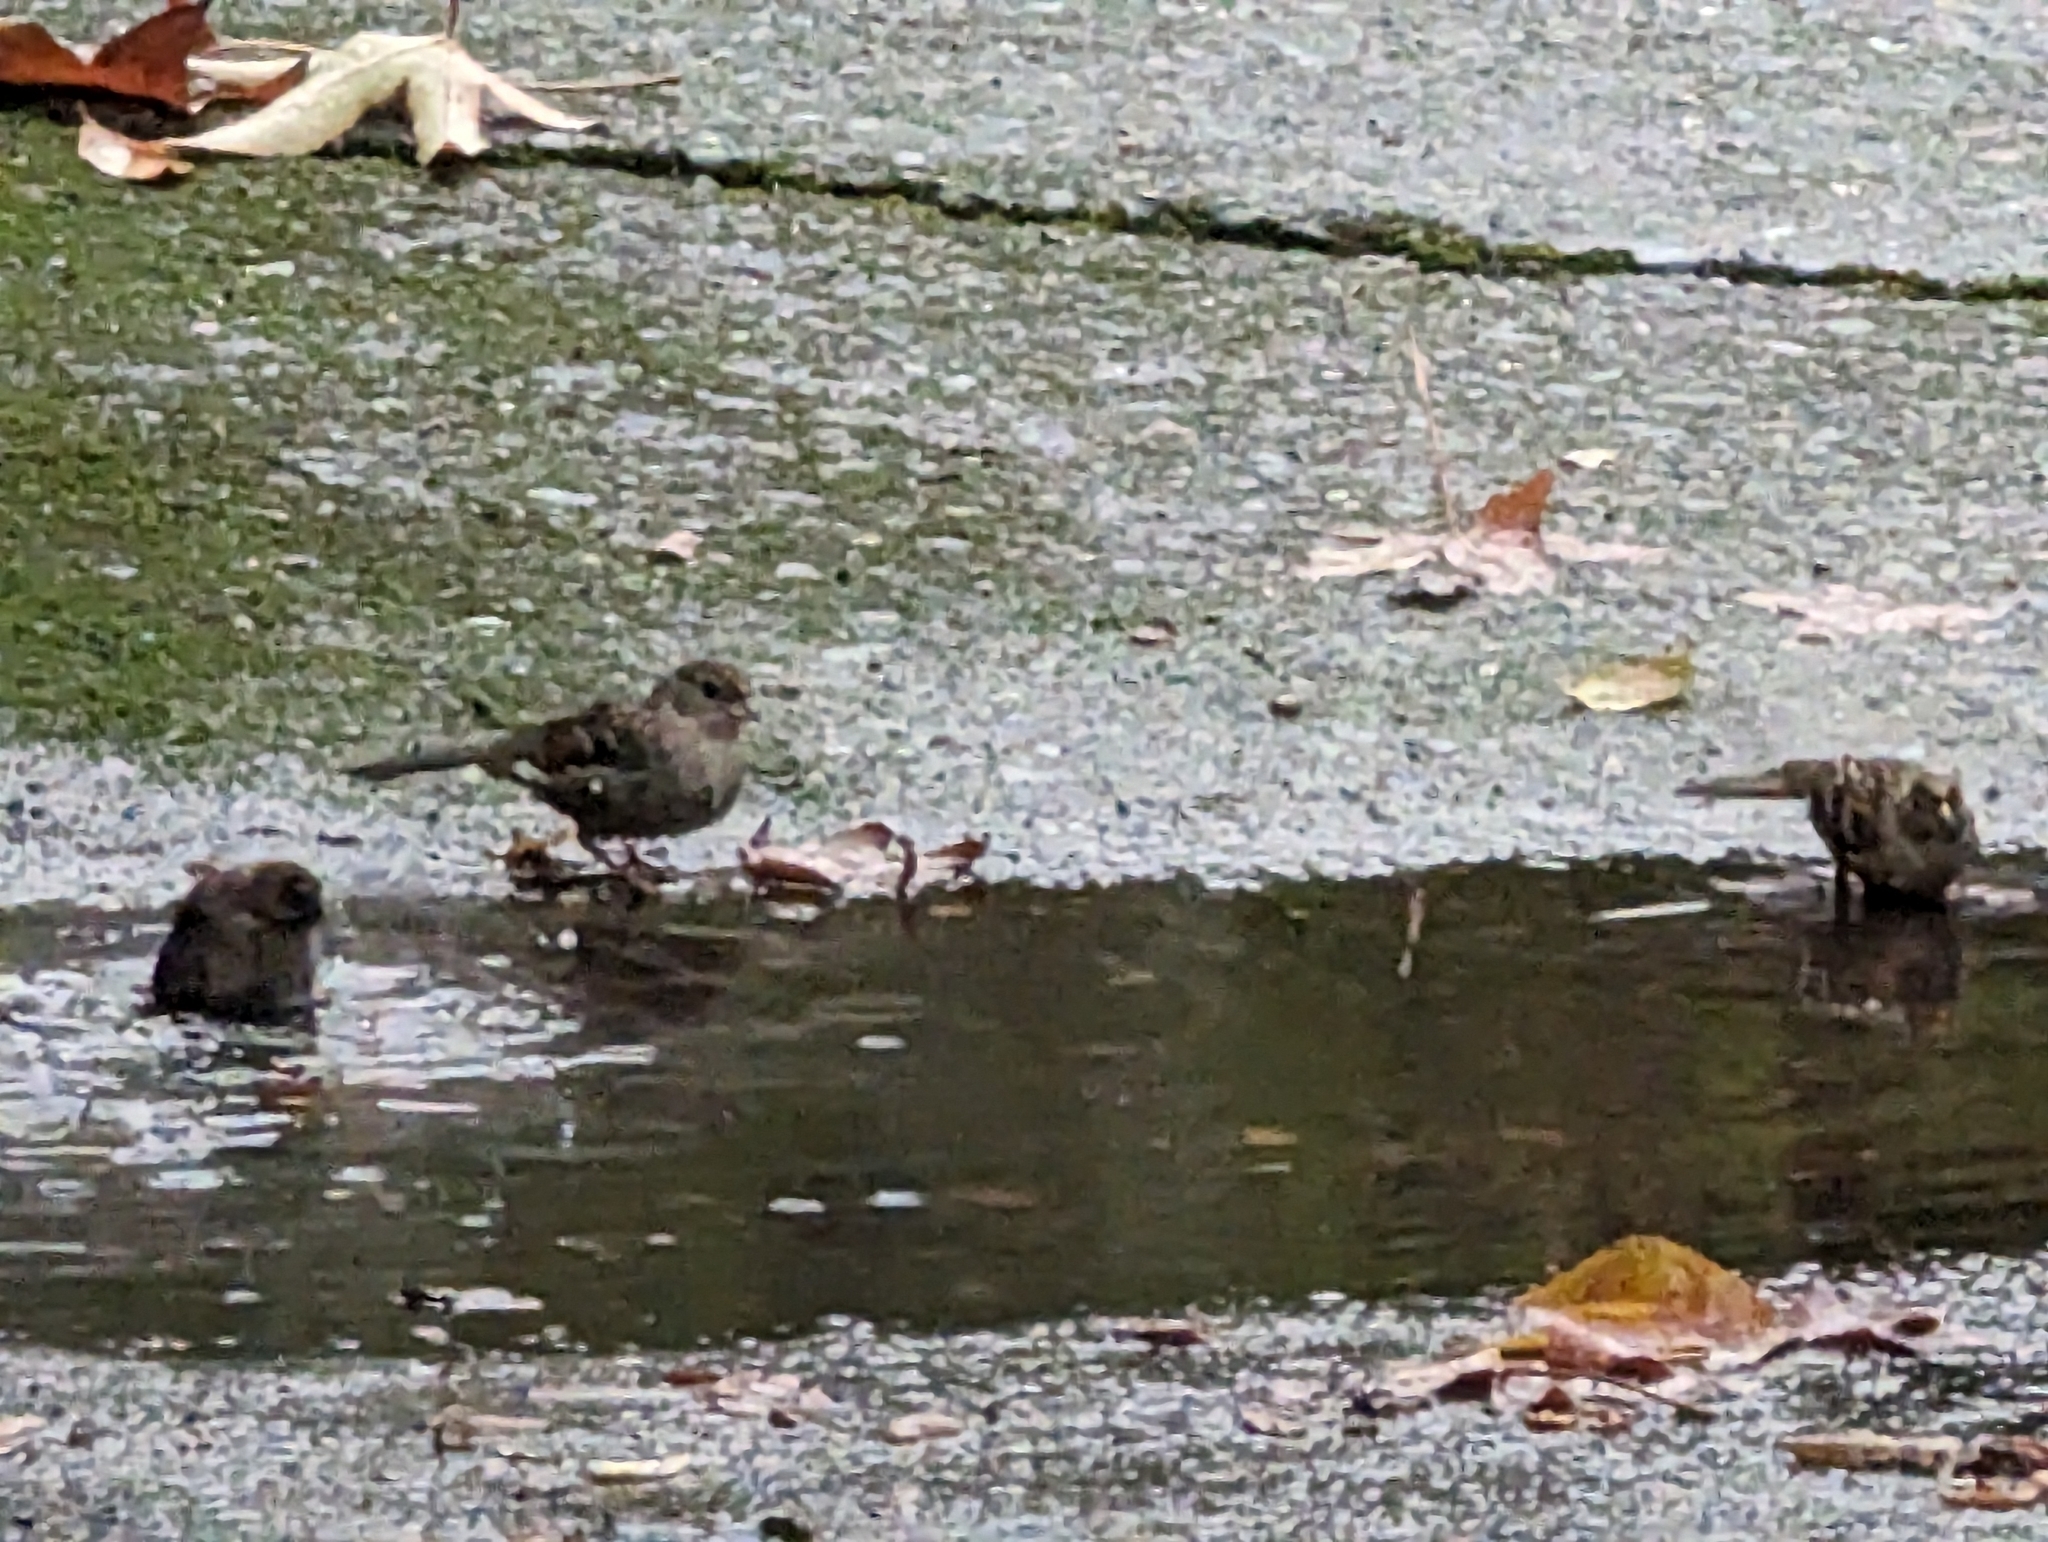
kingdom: Animalia
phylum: Chordata
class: Aves
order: Passeriformes
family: Passerellidae
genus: Zonotrichia
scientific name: Zonotrichia atricapilla
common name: Golden-crowned sparrow
